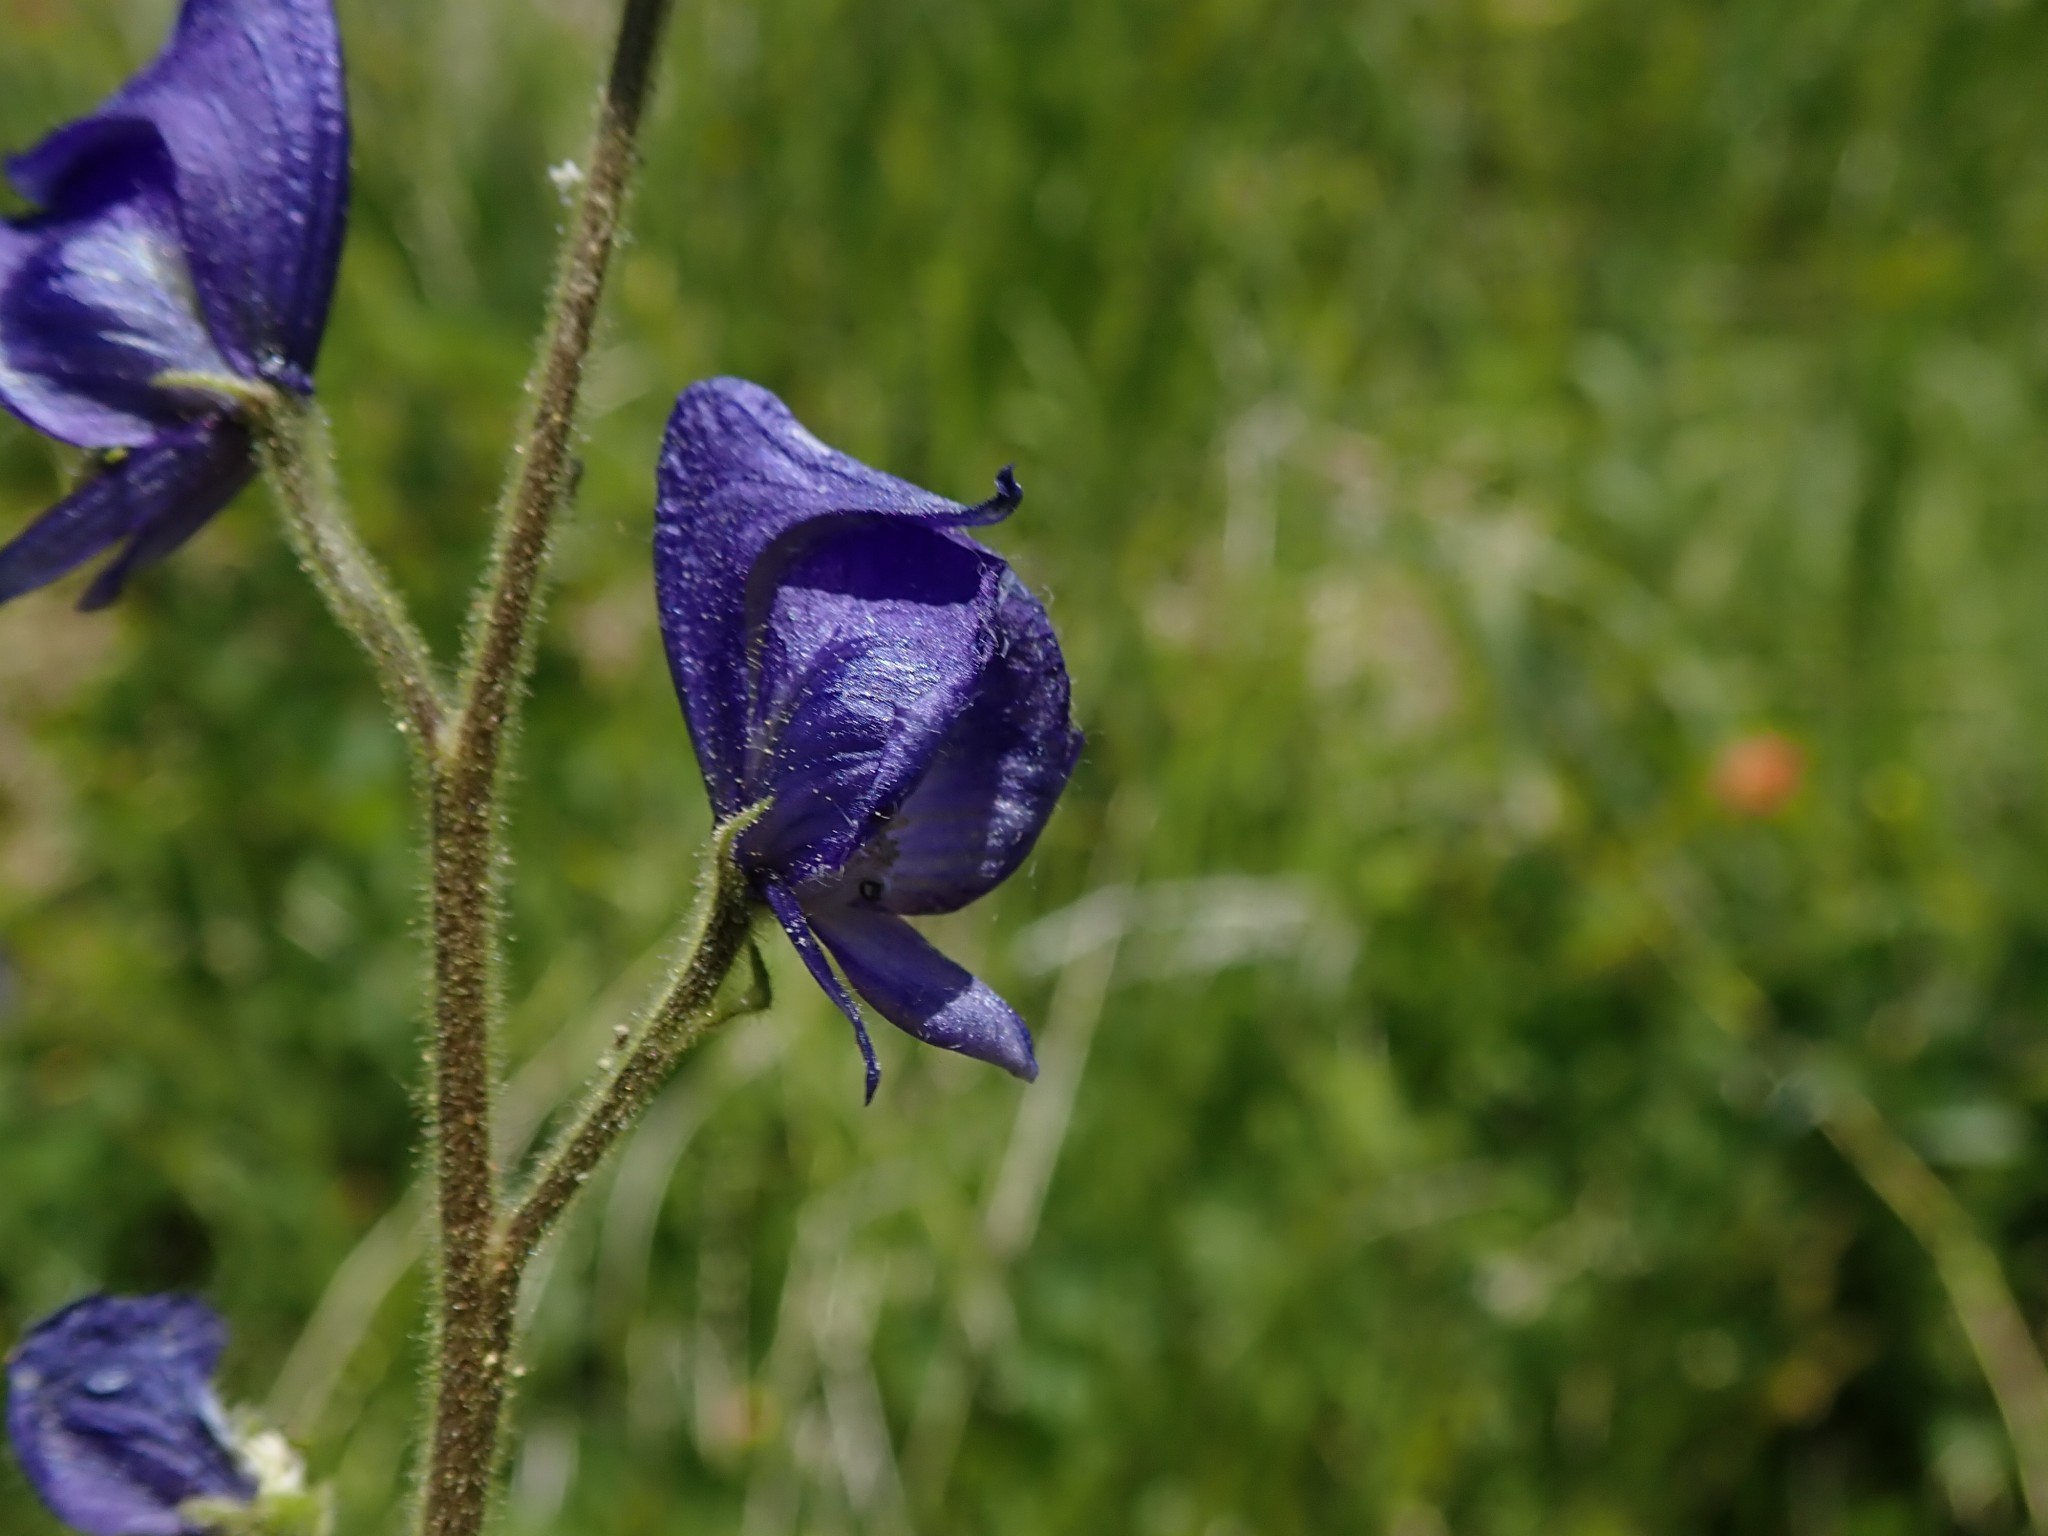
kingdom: Plantae
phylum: Tracheophyta
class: Magnoliopsida
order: Ranunculales
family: Ranunculaceae
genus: Aconitum
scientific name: Aconitum columbianum
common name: Columbia aconite
